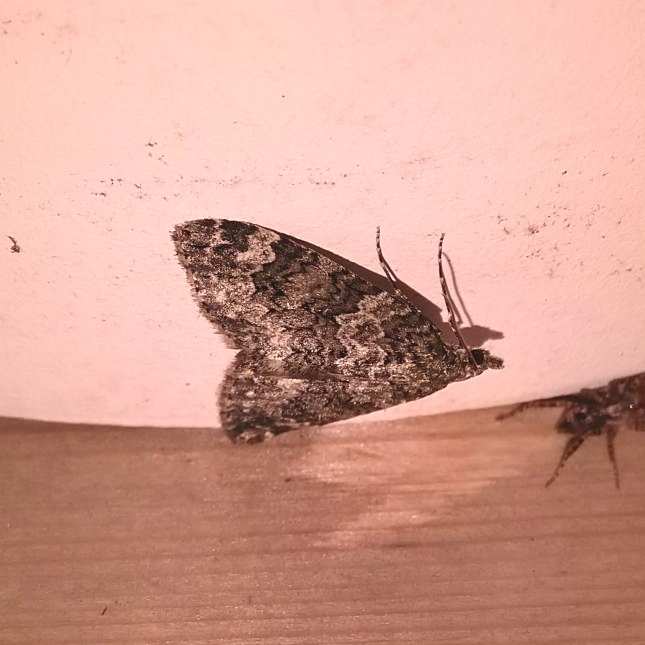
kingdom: Animalia
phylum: Arthropoda
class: Insecta
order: Lepidoptera
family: Geometridae
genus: Chloroclysta
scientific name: Chloroclysta miata
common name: Autumn green carpet
